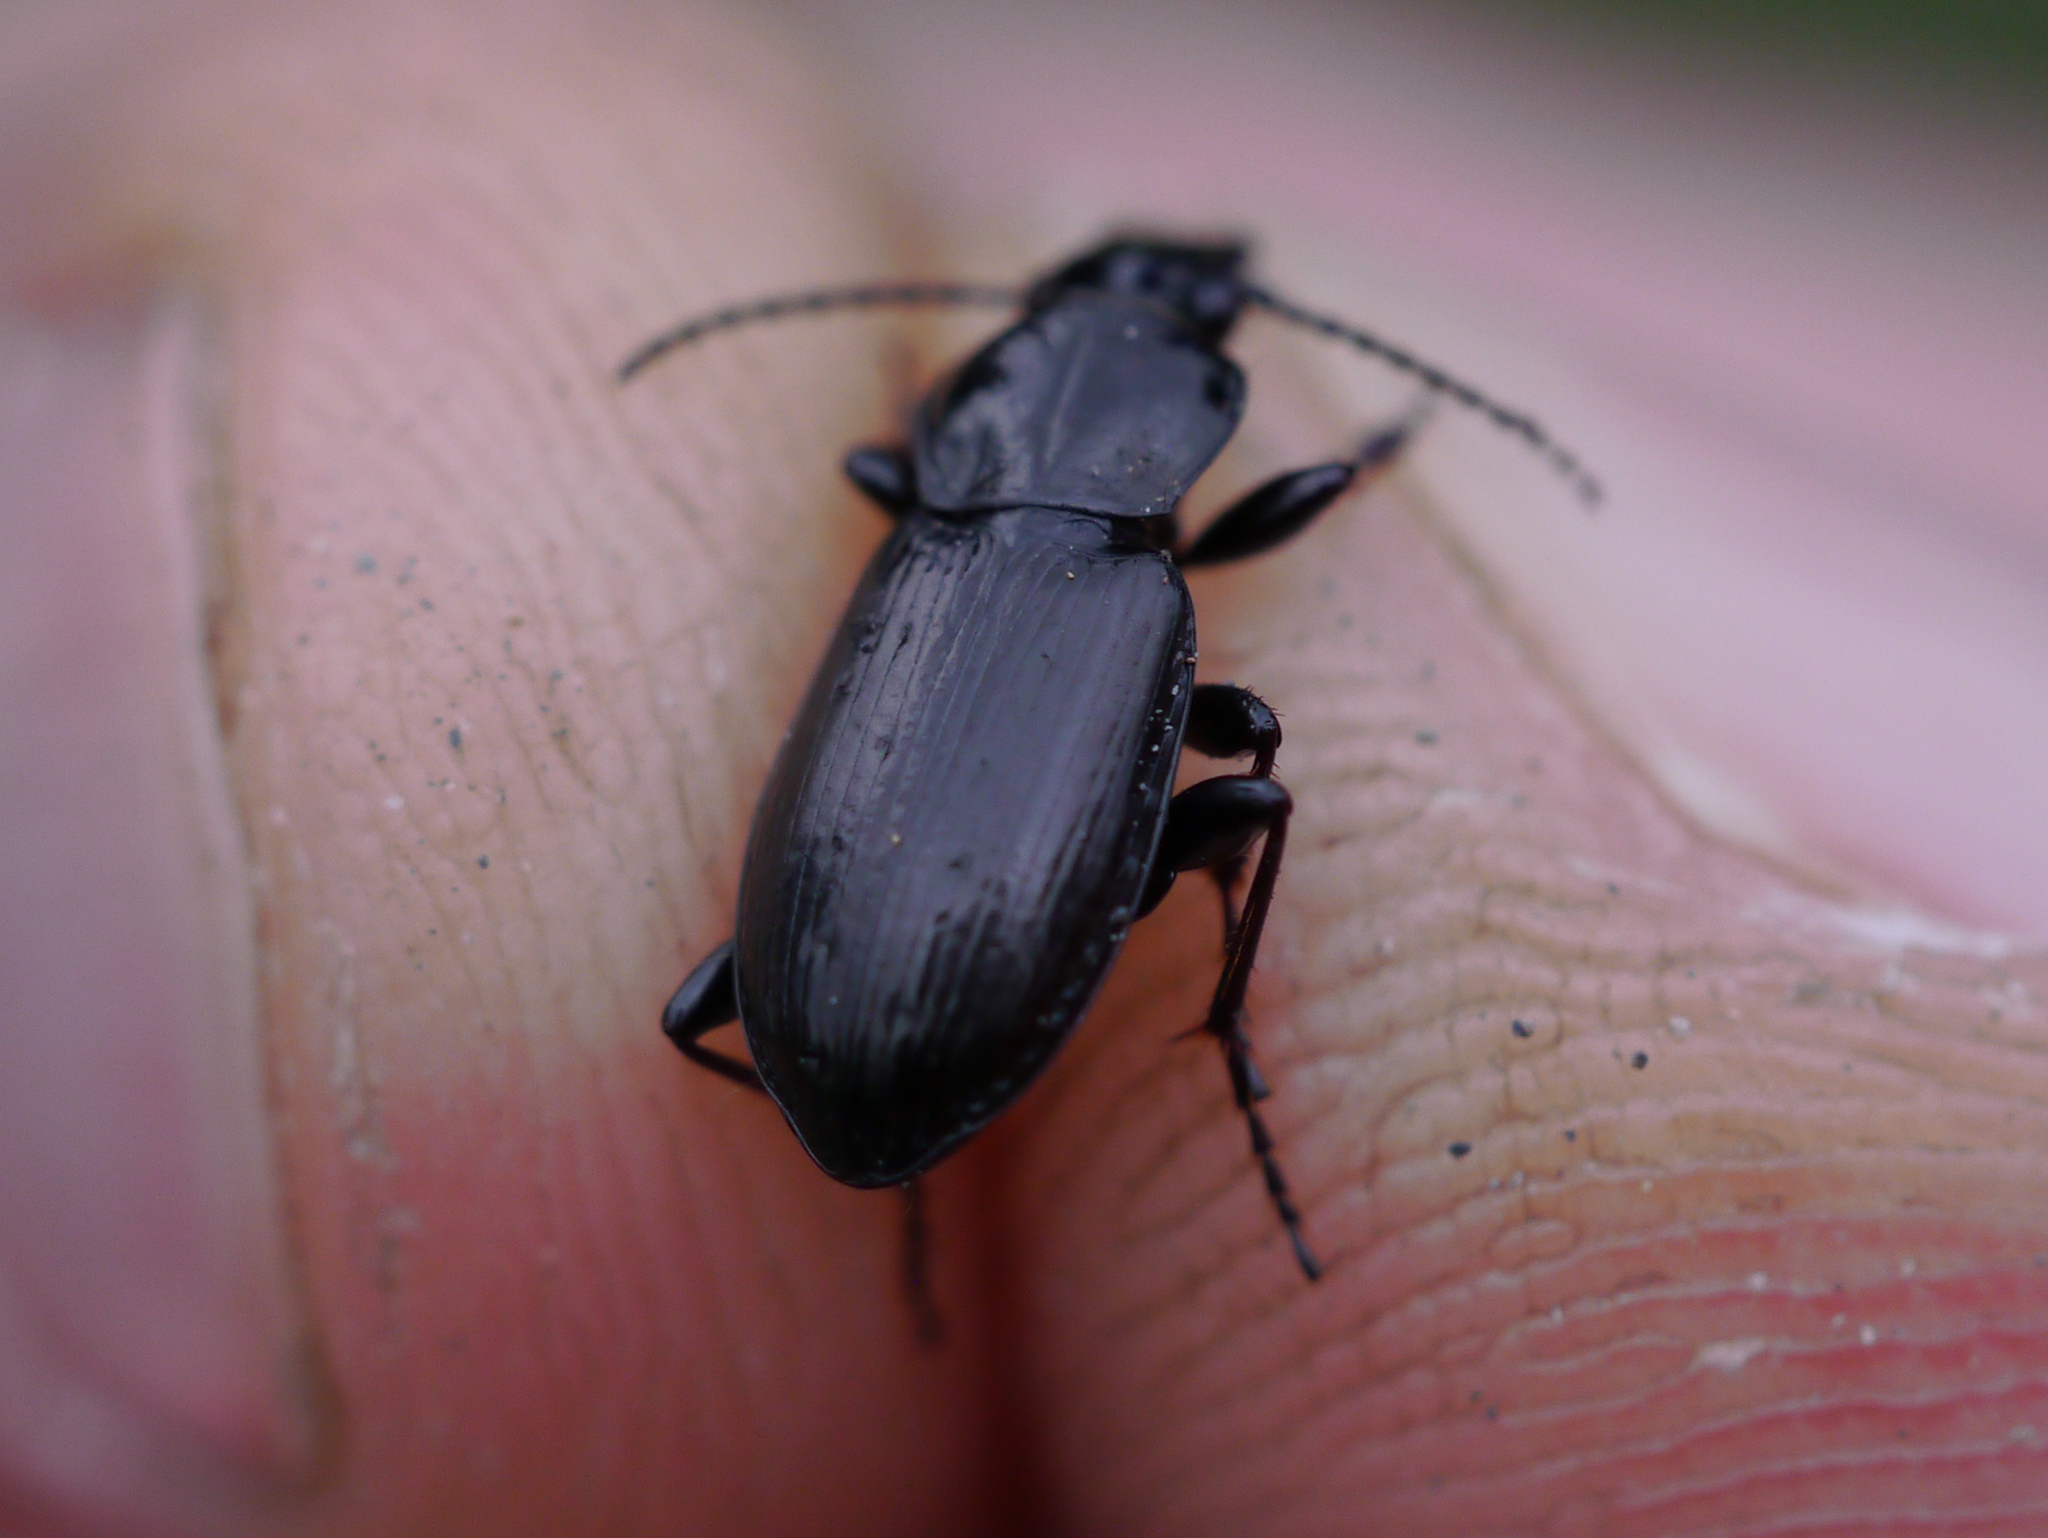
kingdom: Animalia
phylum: Arthropoda
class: Insecta
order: Coleoptera
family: Carabidae
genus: Pterostichus
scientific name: Pterostichus adstrictus
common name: Upland blackclock
